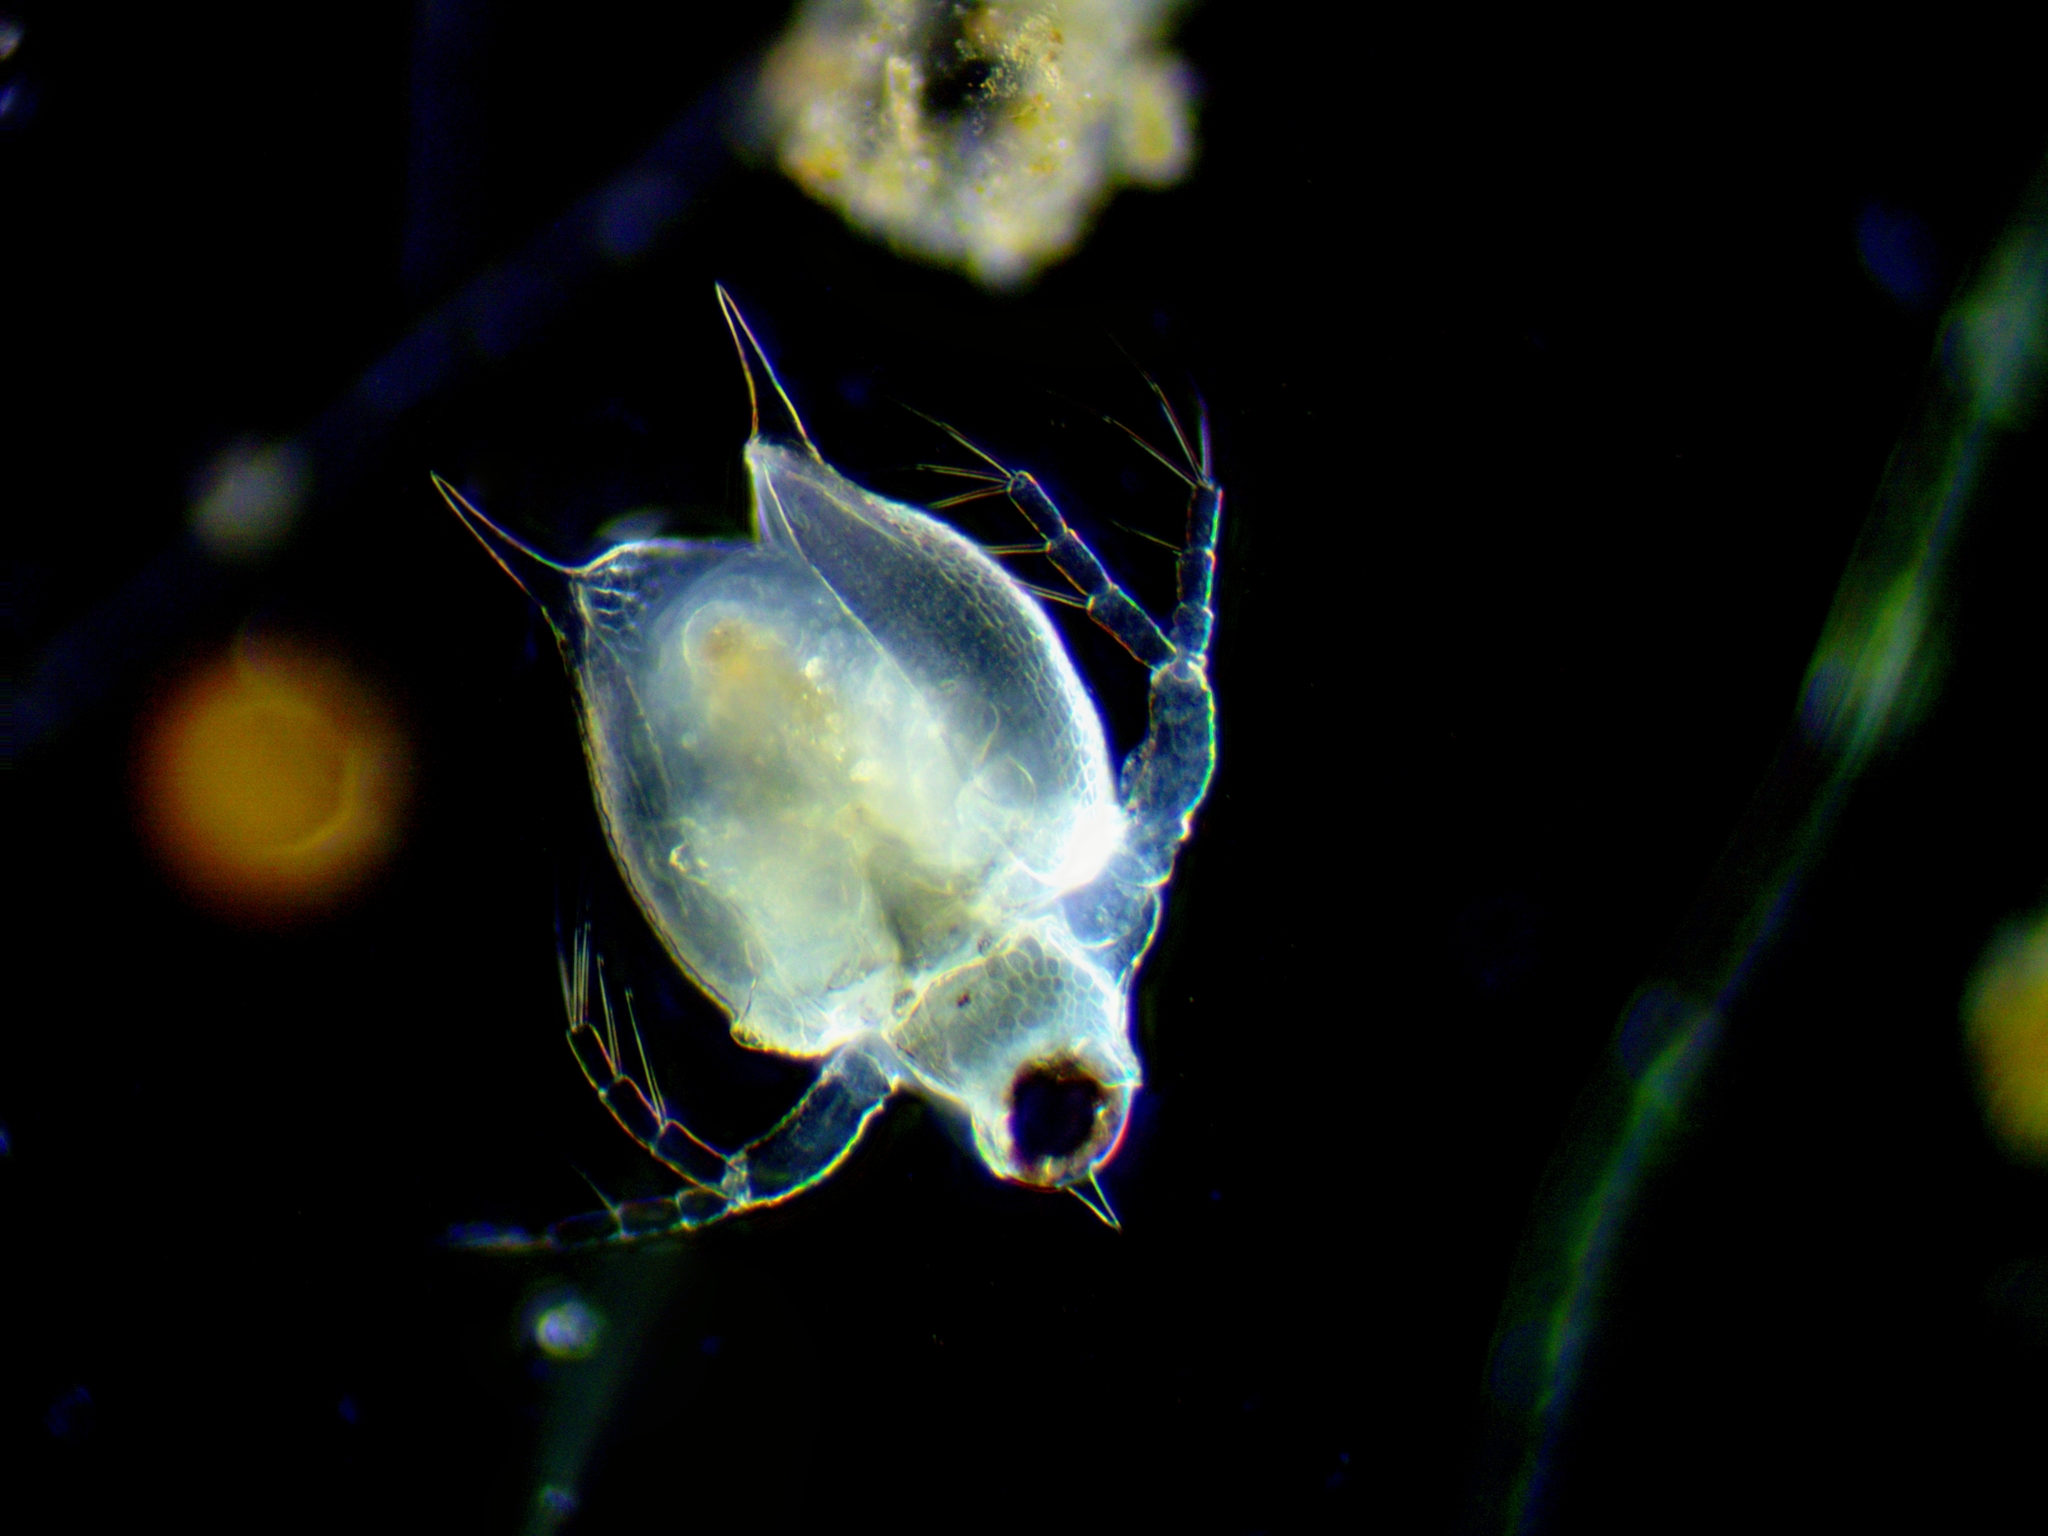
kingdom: Animalia
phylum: Arthropoda
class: Branchiopoda
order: Diplostraca
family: Daphniidae
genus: Scapholeberis
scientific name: Scapholeberis mucronata
